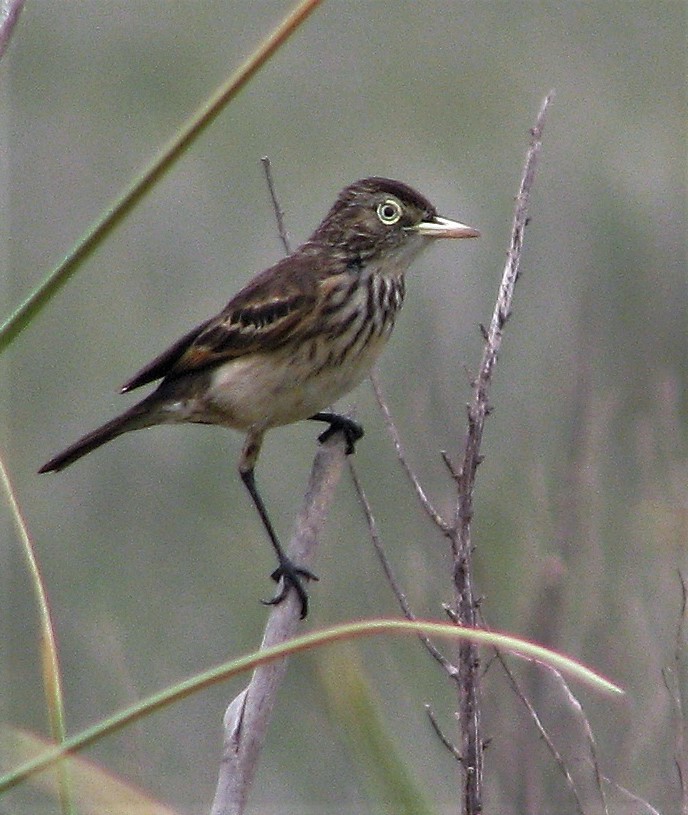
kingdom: Animalia
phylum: Chordata
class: Aves
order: Passeriformes
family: Tyrannidae
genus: Hymenops
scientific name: Hymenops perspicillatus
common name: Spectacled tyrant
